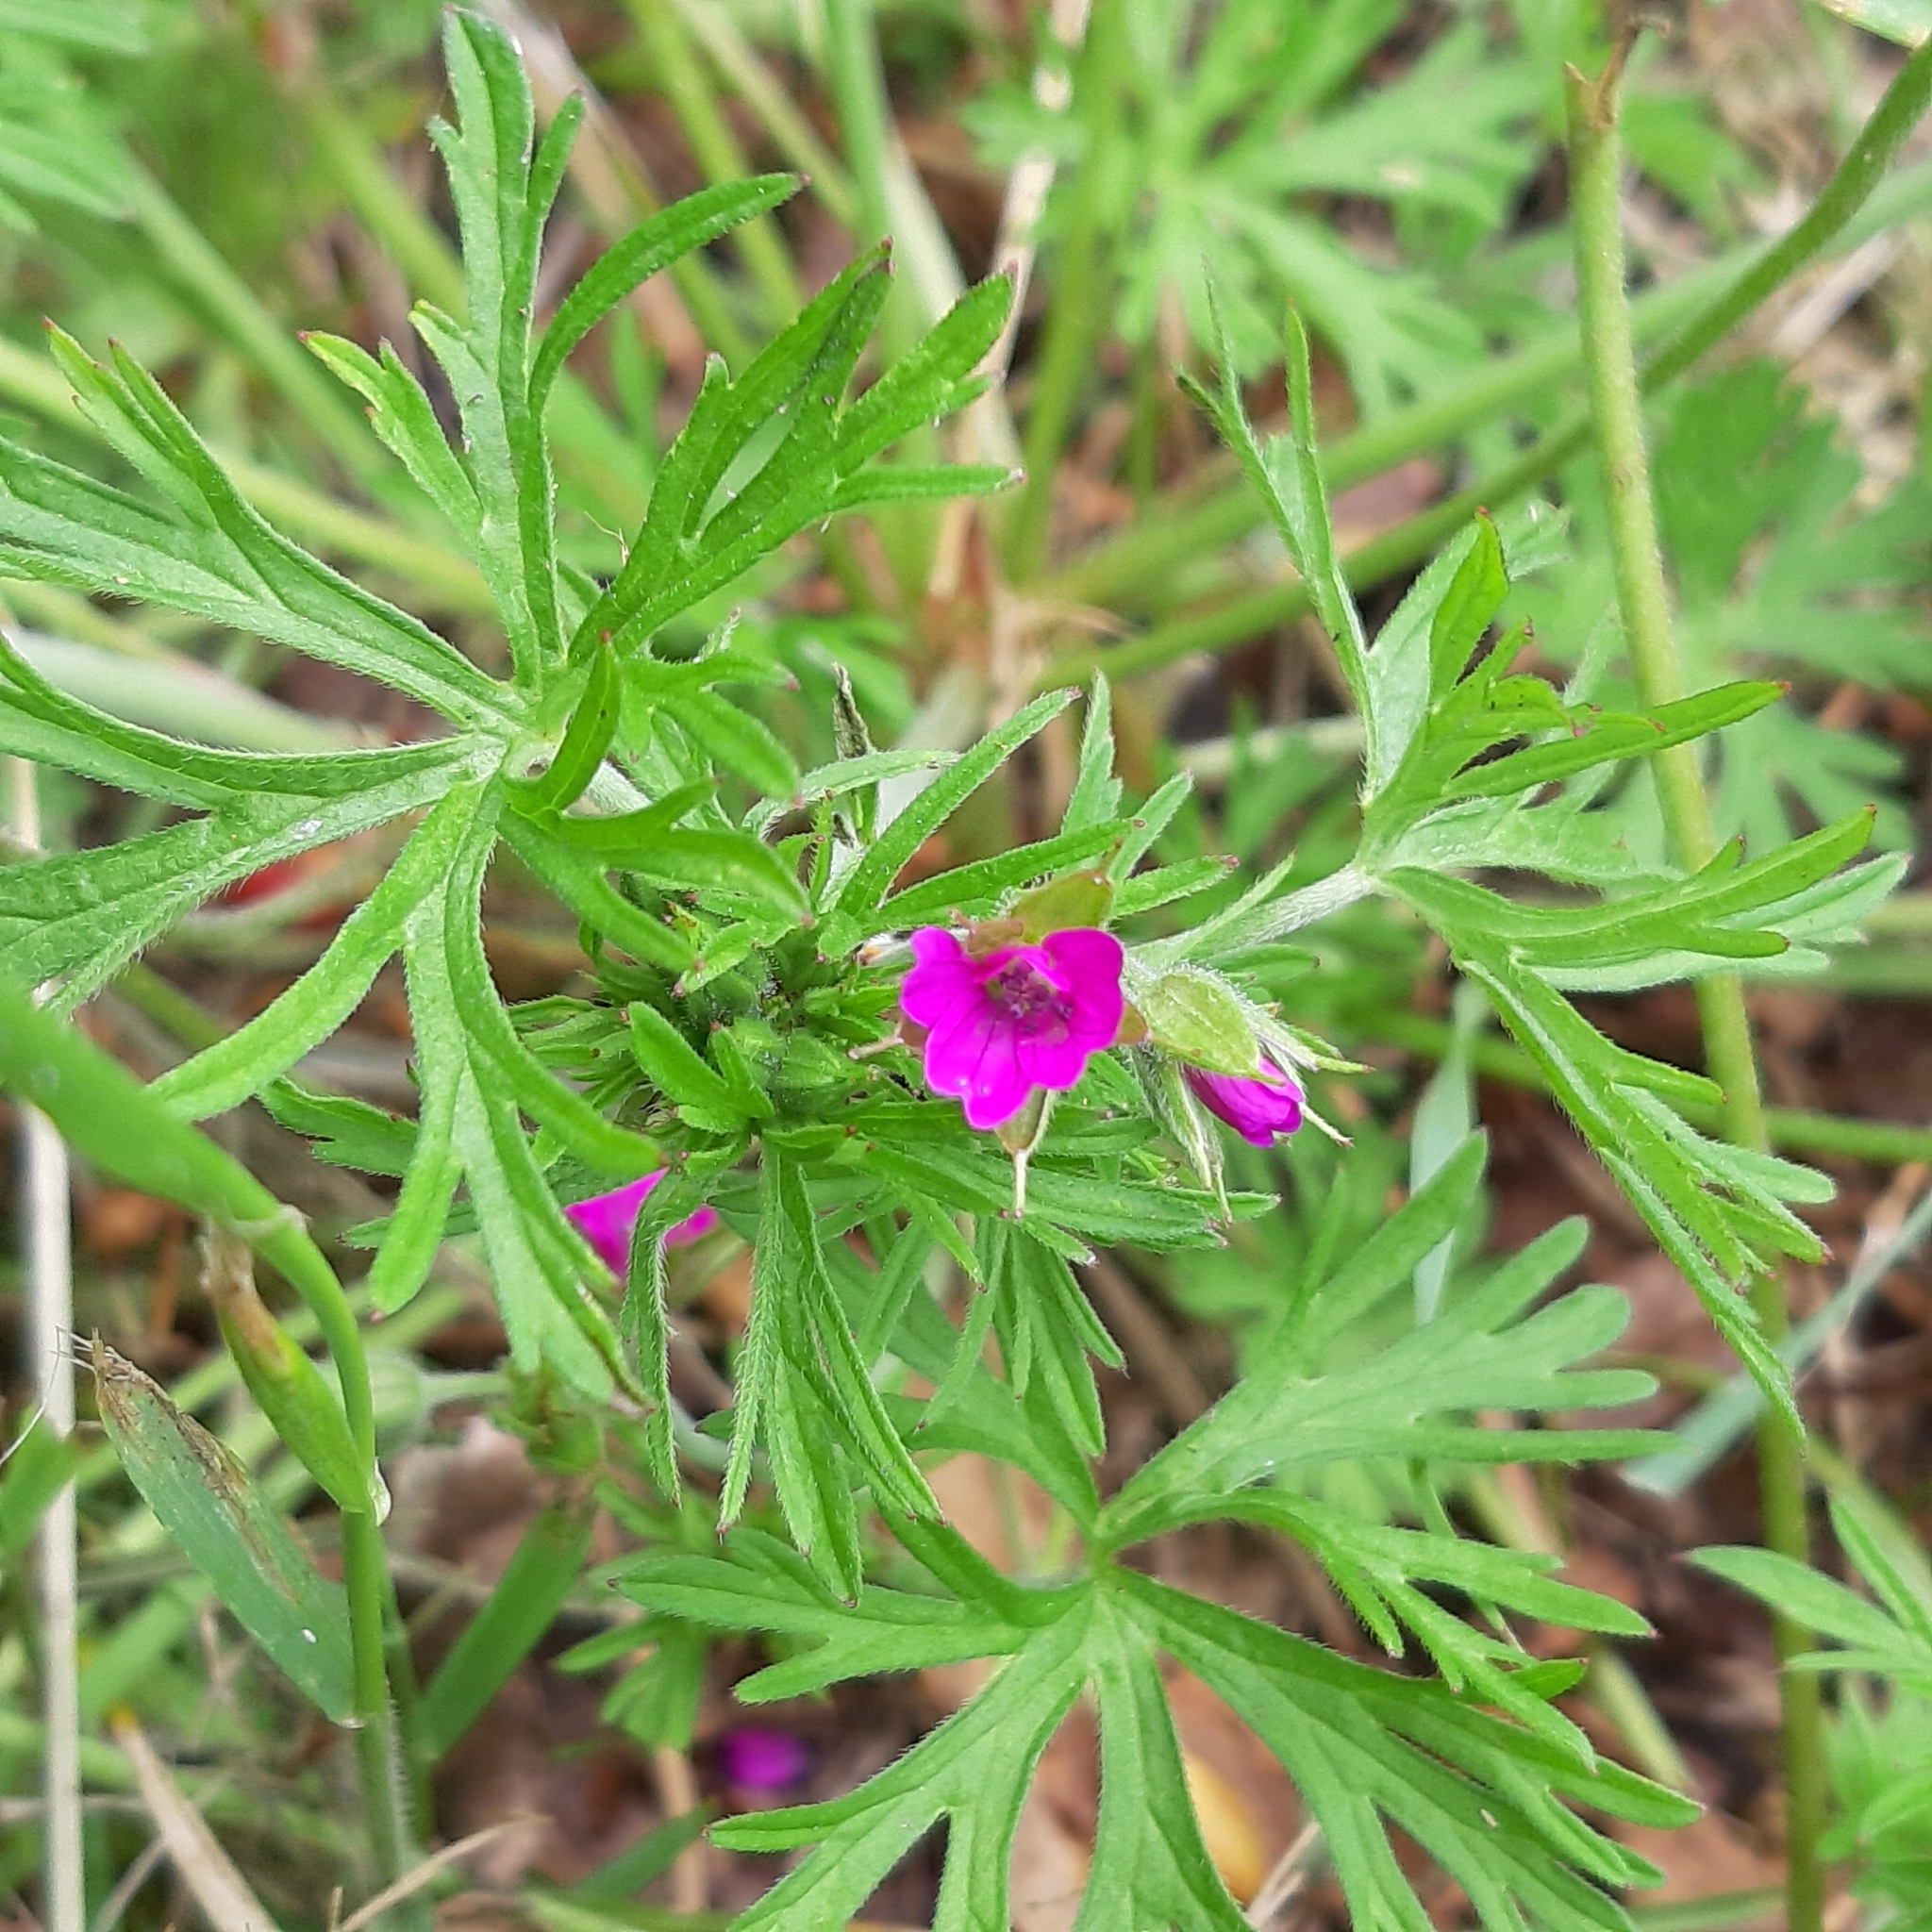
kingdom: Plantae
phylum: Tracheophyta
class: Magnoliopsida
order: Geraniales
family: Geraniaceae
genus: Geranium
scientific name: Geranium dissectum
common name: Cut-leaved crane's-bill
